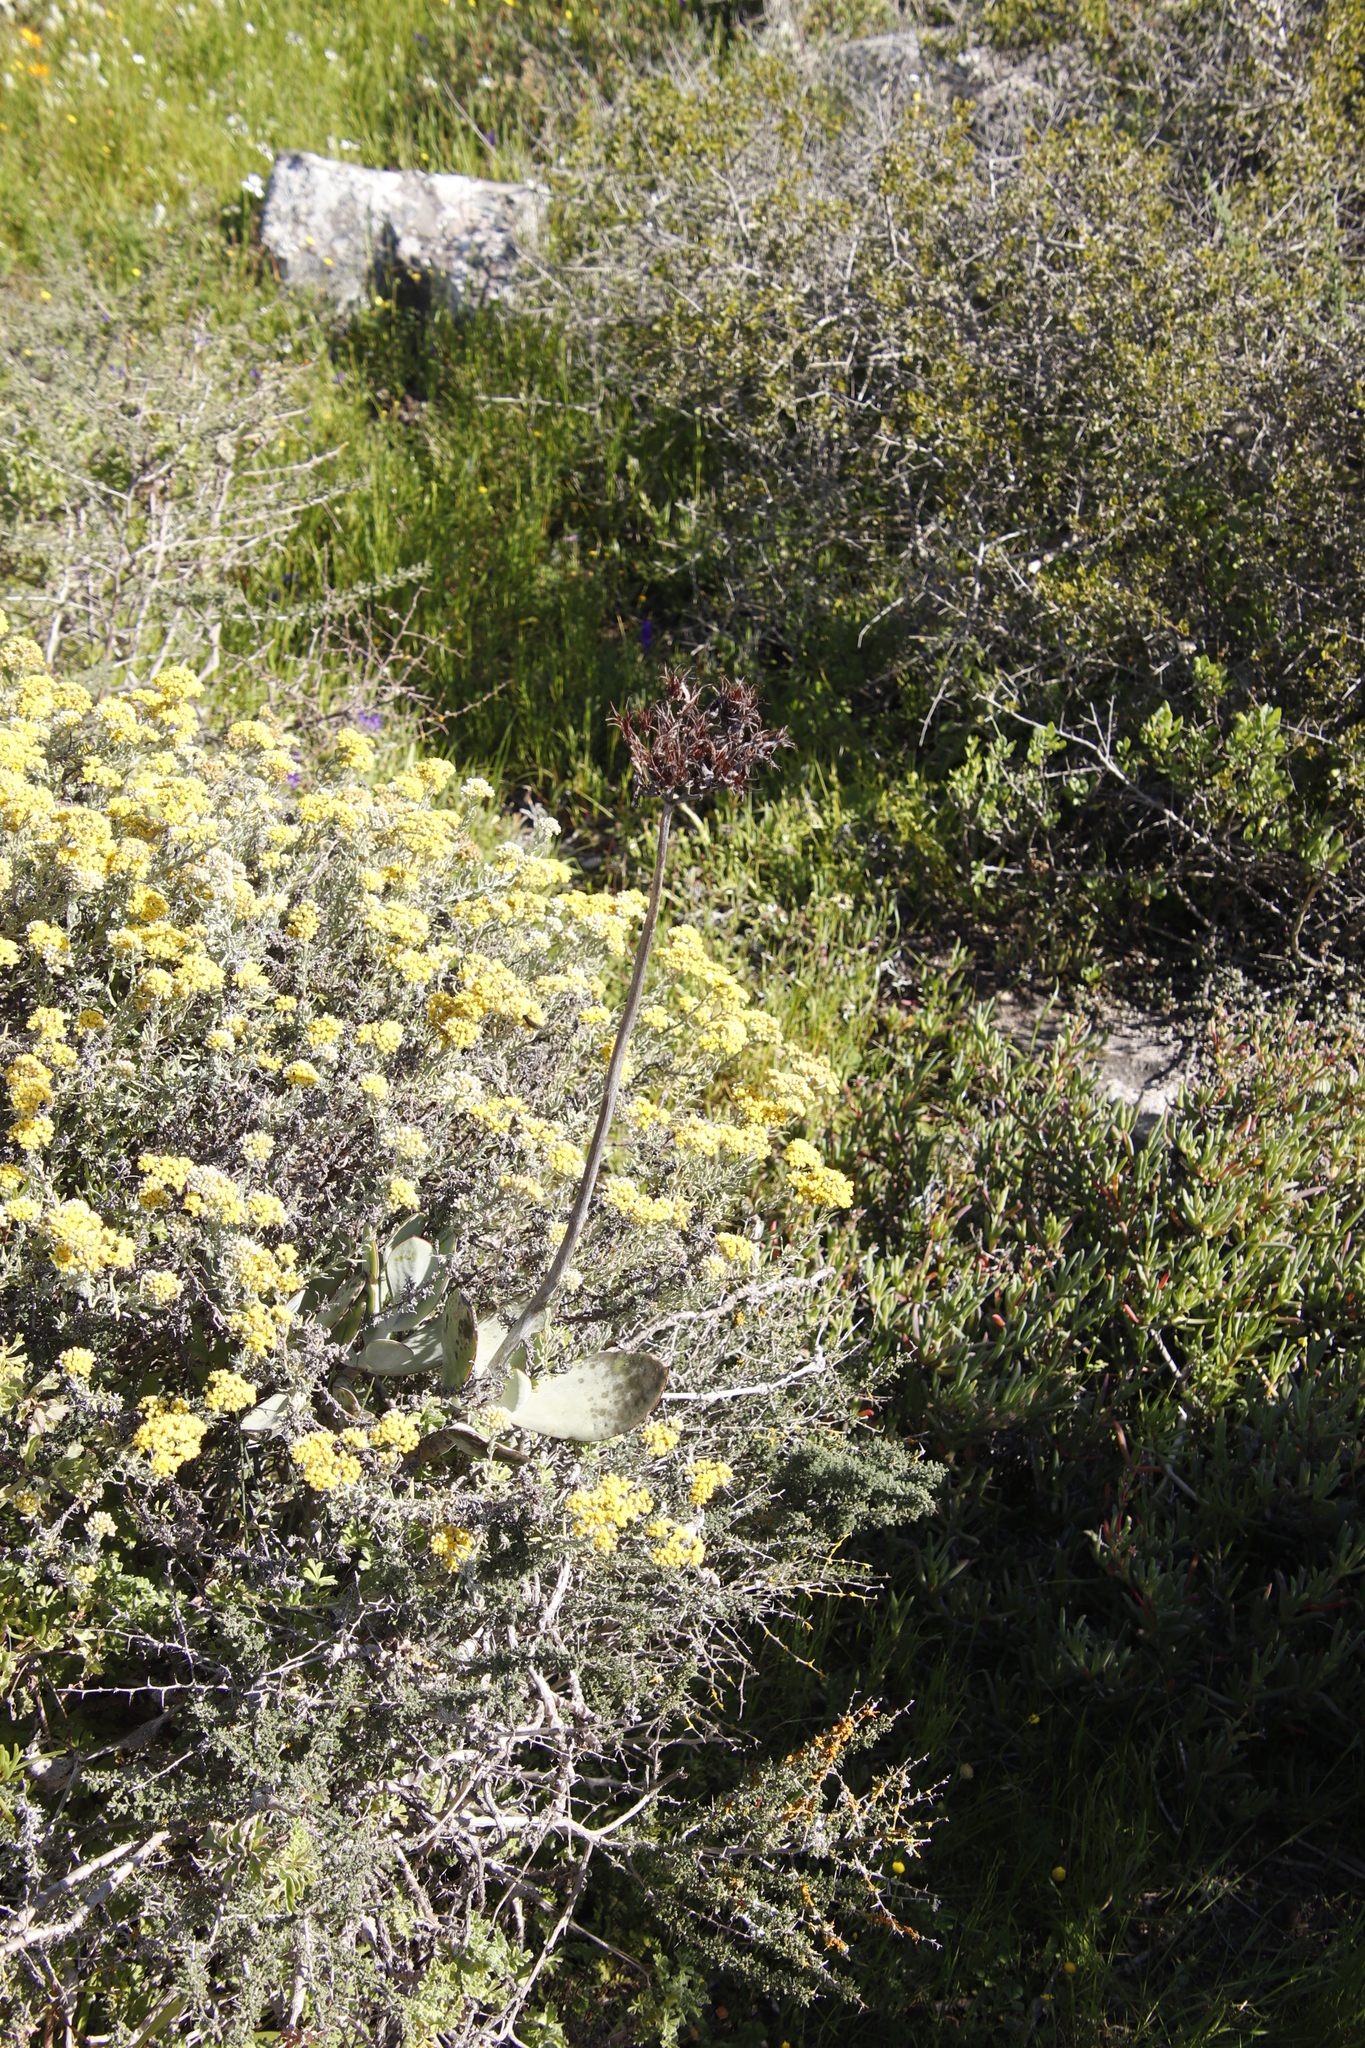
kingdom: Plantae
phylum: Tracheophyta
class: Magnoliopsida
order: Saxifragales
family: Crassulaceae
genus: Cotyledon
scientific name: Cotyledon orbiculata
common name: Pig's ear
